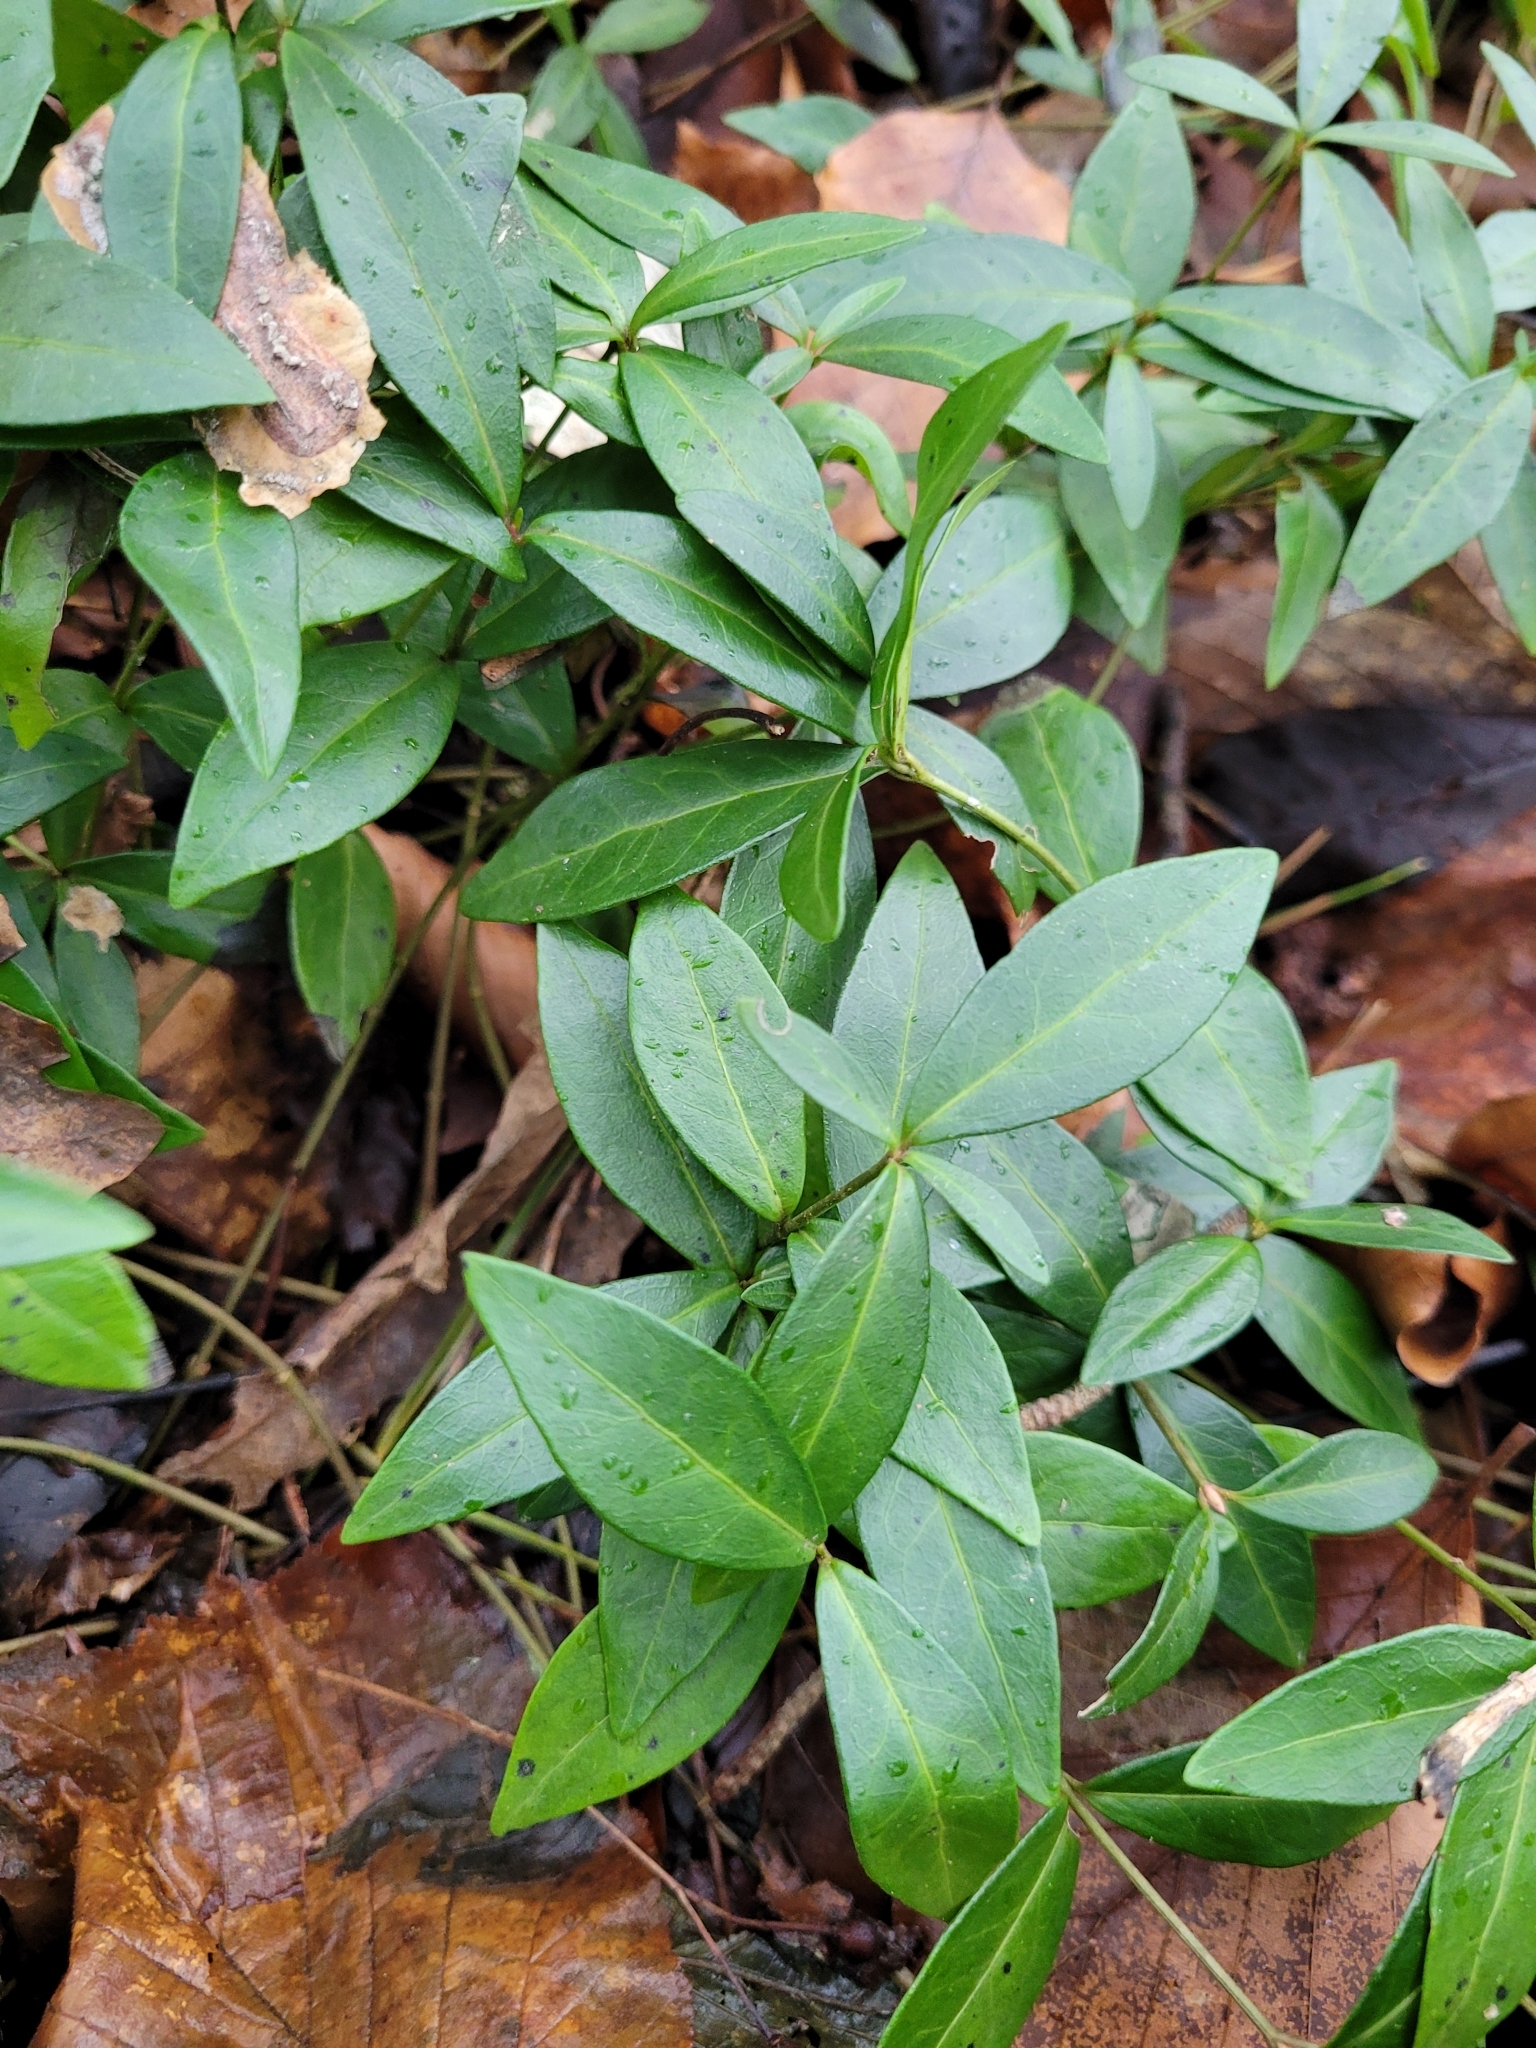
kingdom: Plantae
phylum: Tracheophyta
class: Magnoliopsida
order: Gentianales
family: Apocynaceae
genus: Vinca
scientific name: Vinca minor
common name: Lesser periwinkle
